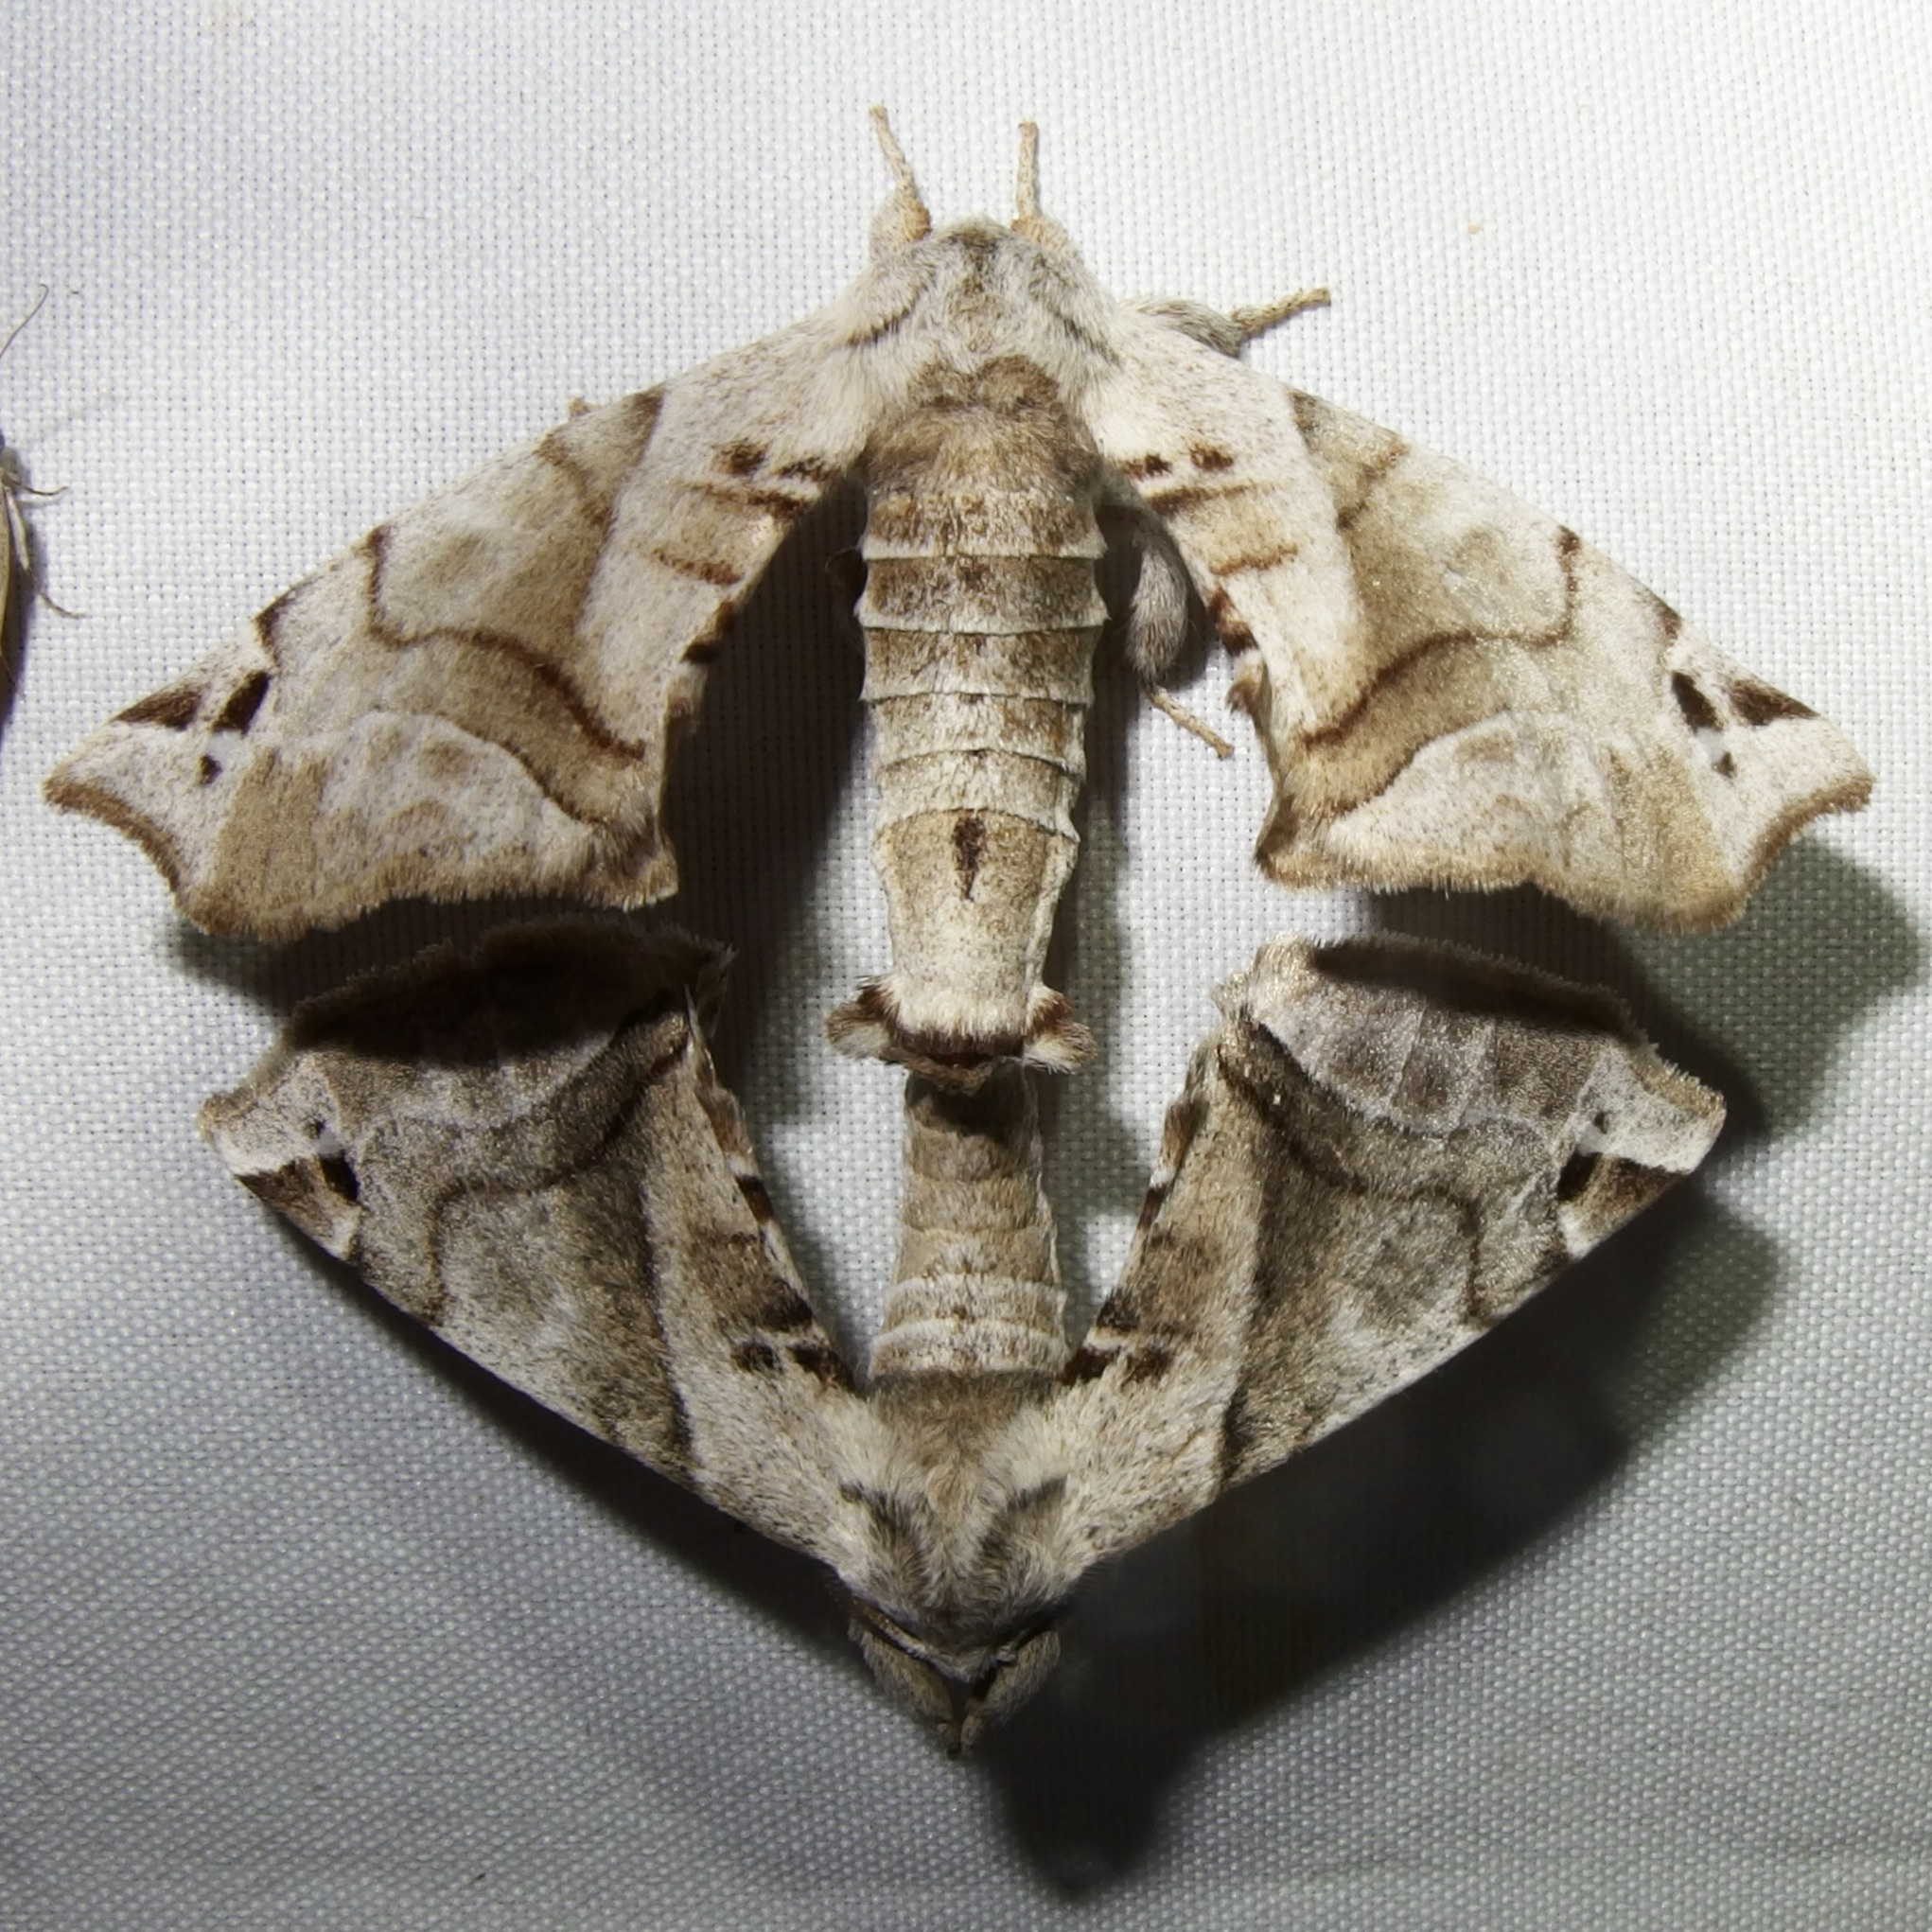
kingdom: Animalia
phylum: Arthropoda
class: Insecta
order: Lepidoptera
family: Apatelodidae
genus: Hygrochroa
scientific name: Hygrochroa Apatelodes pudefacta
